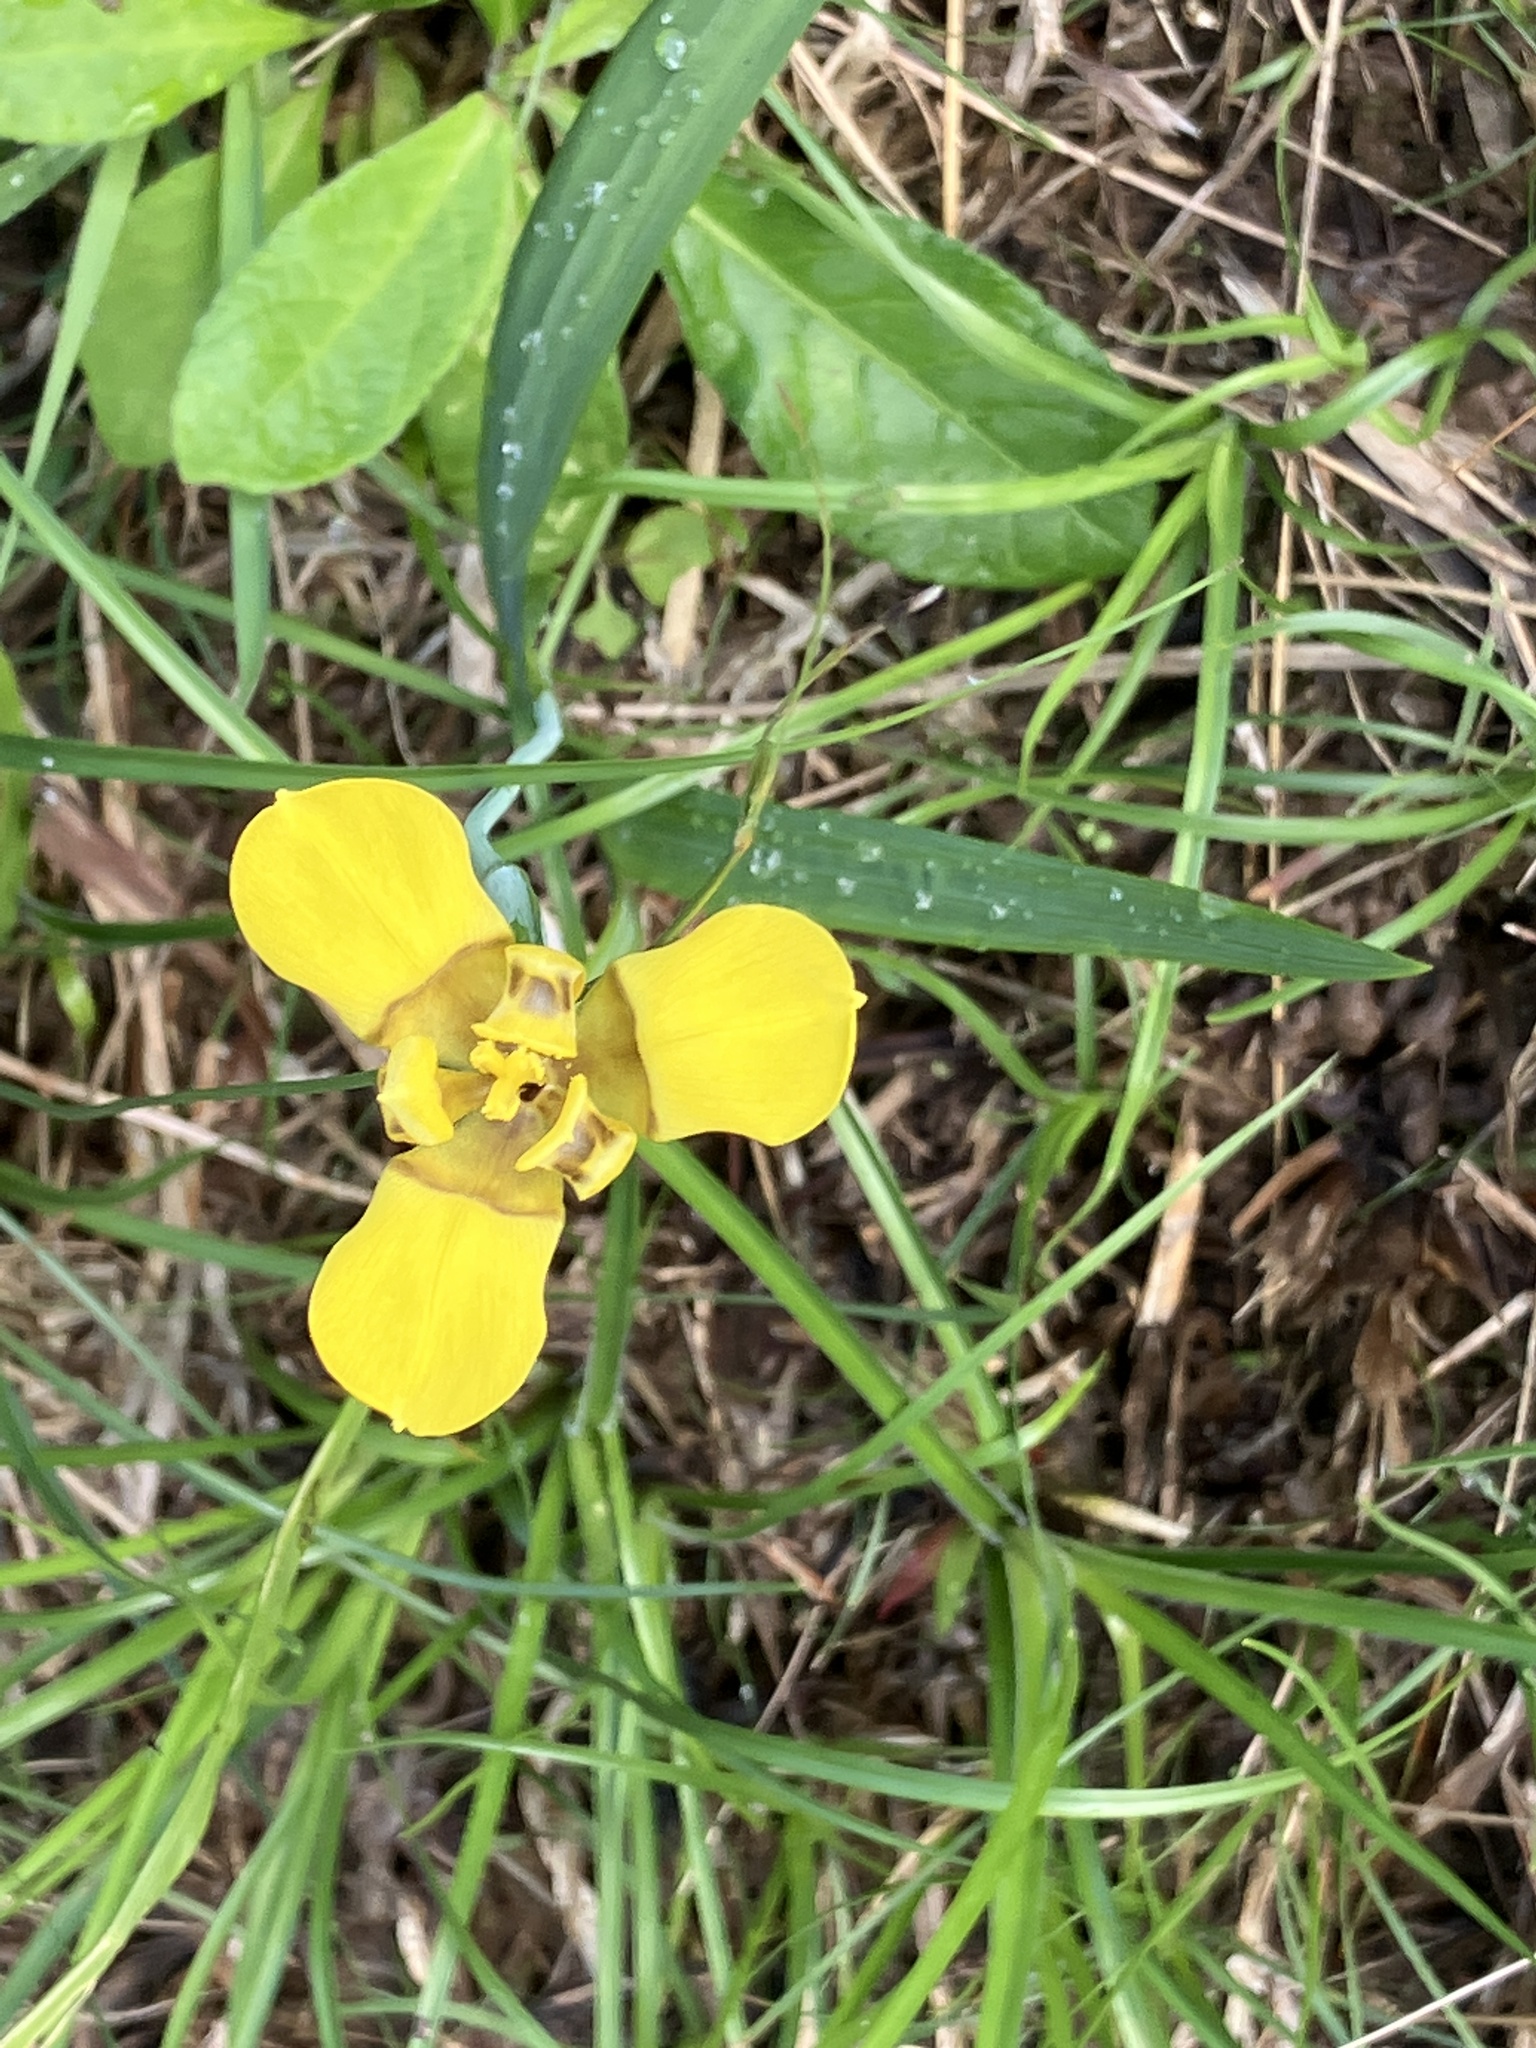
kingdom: Plantae
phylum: Tracheophyta
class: Liliopsida
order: Asparagales
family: Iridaceae
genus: Trimezia
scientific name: Trimezia martinicensis
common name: Martinique trimezia
